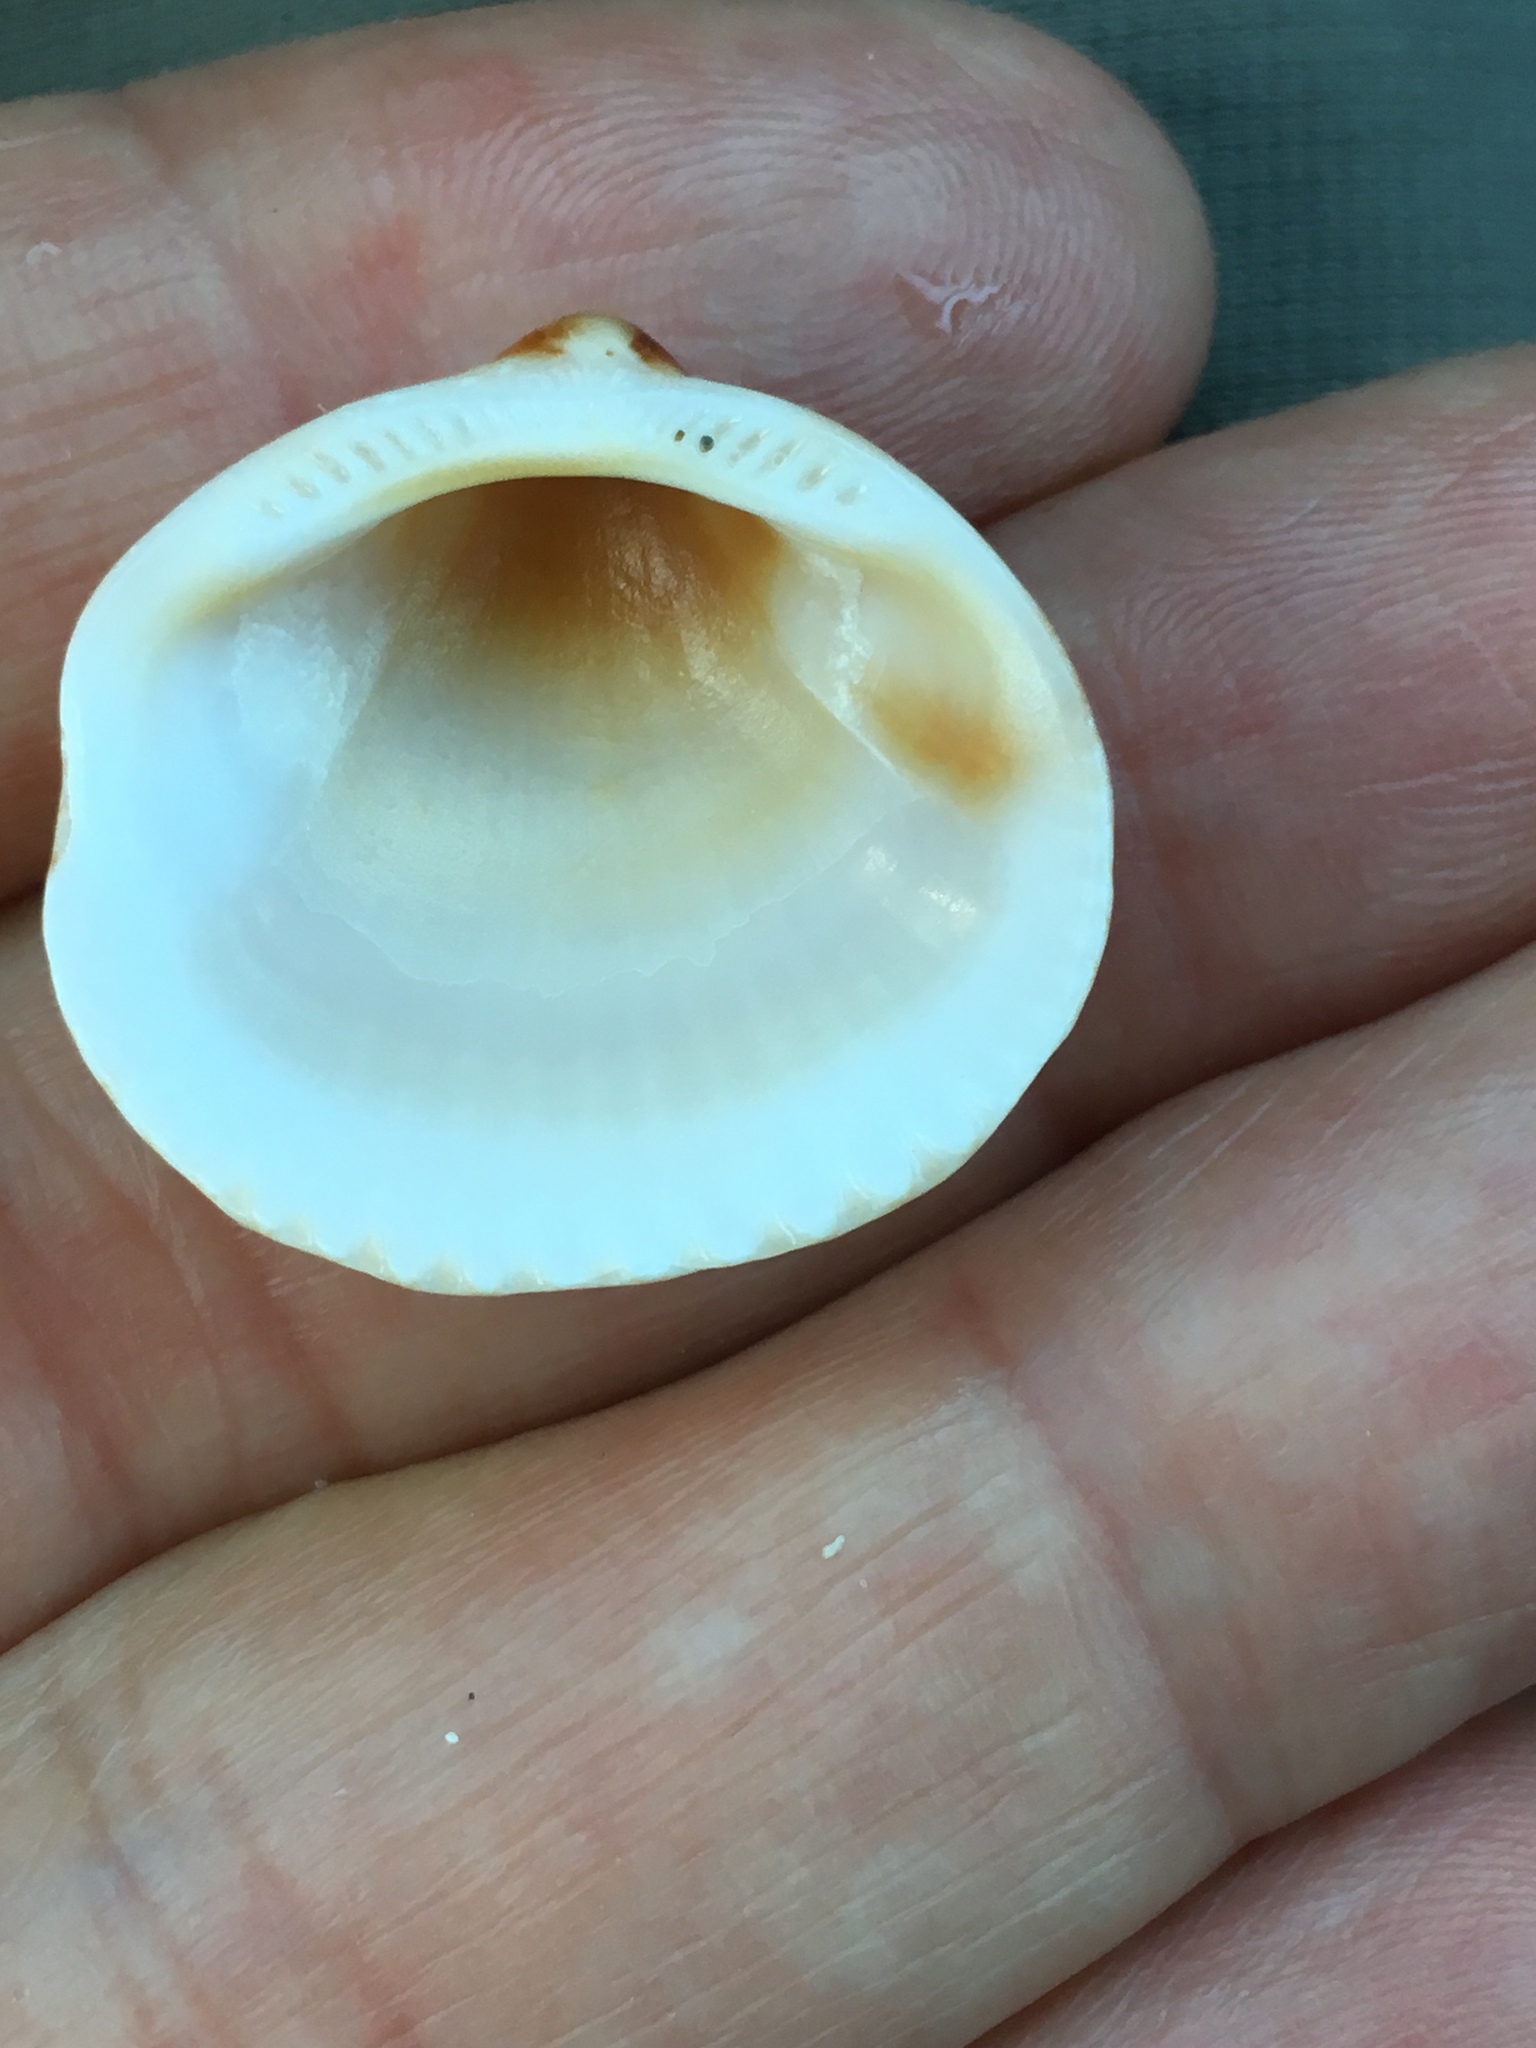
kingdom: Animalia
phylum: Mollusca
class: Bivalvia
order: Arcida
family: Glycymerididae
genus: Glycymeris
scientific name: Glycymeris spectralis
